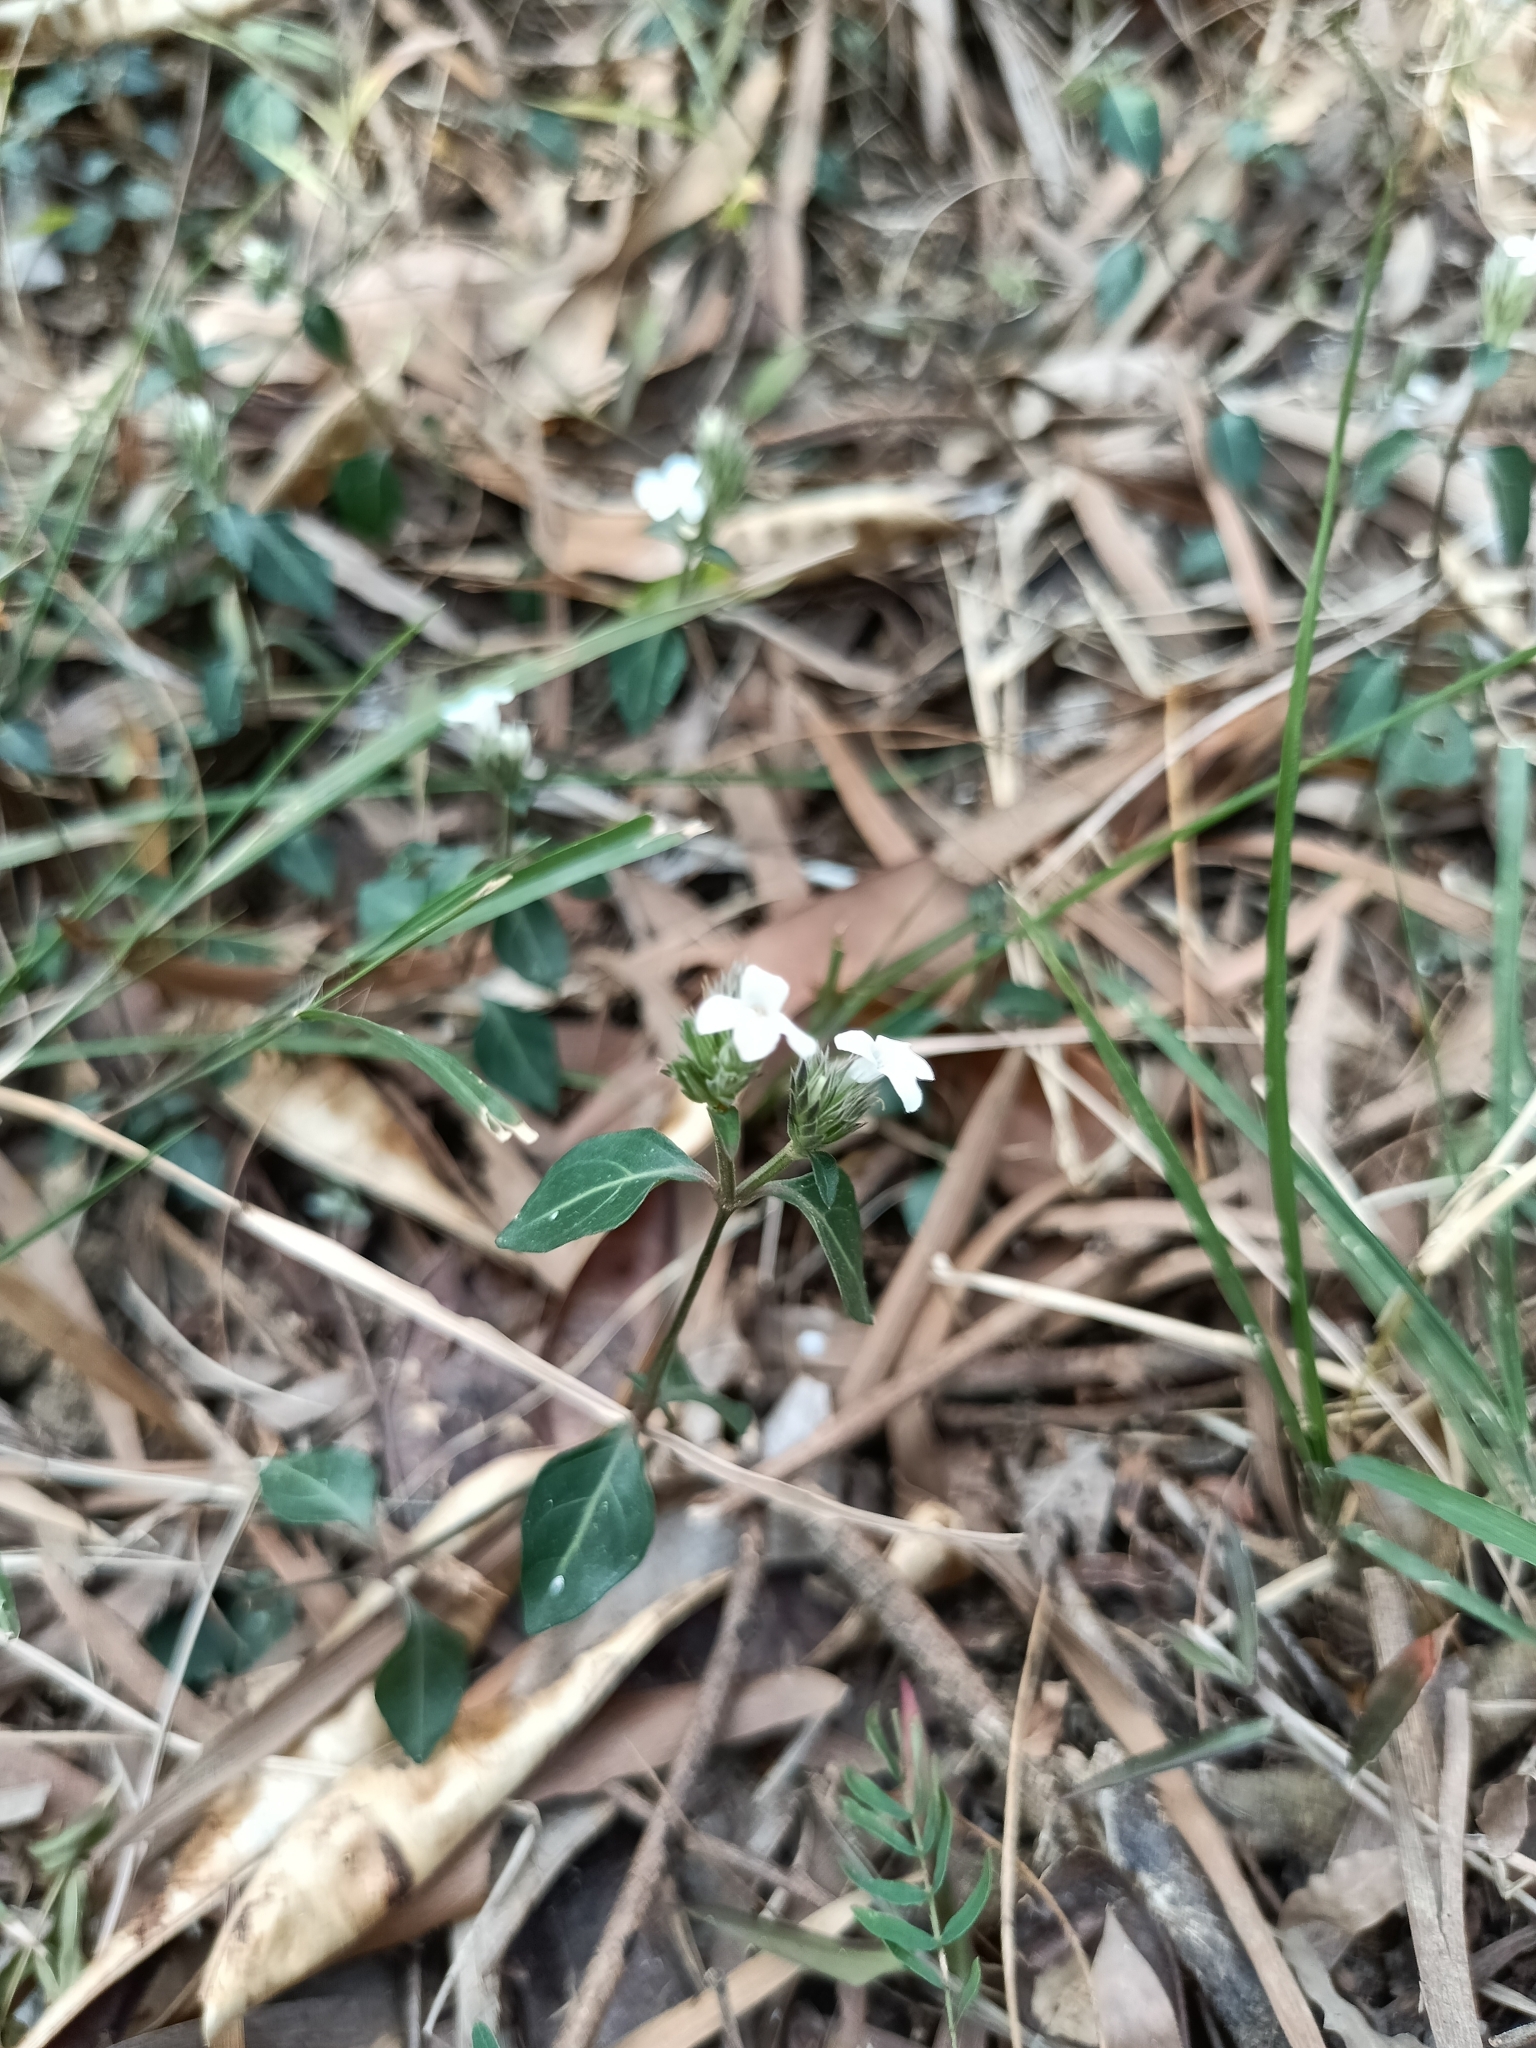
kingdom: Plantae
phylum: Tracheophyta
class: Magnoliopsida
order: Lamiales
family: Acanthaceae
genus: Lepidagathis
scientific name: Lepidagathis formosensis
